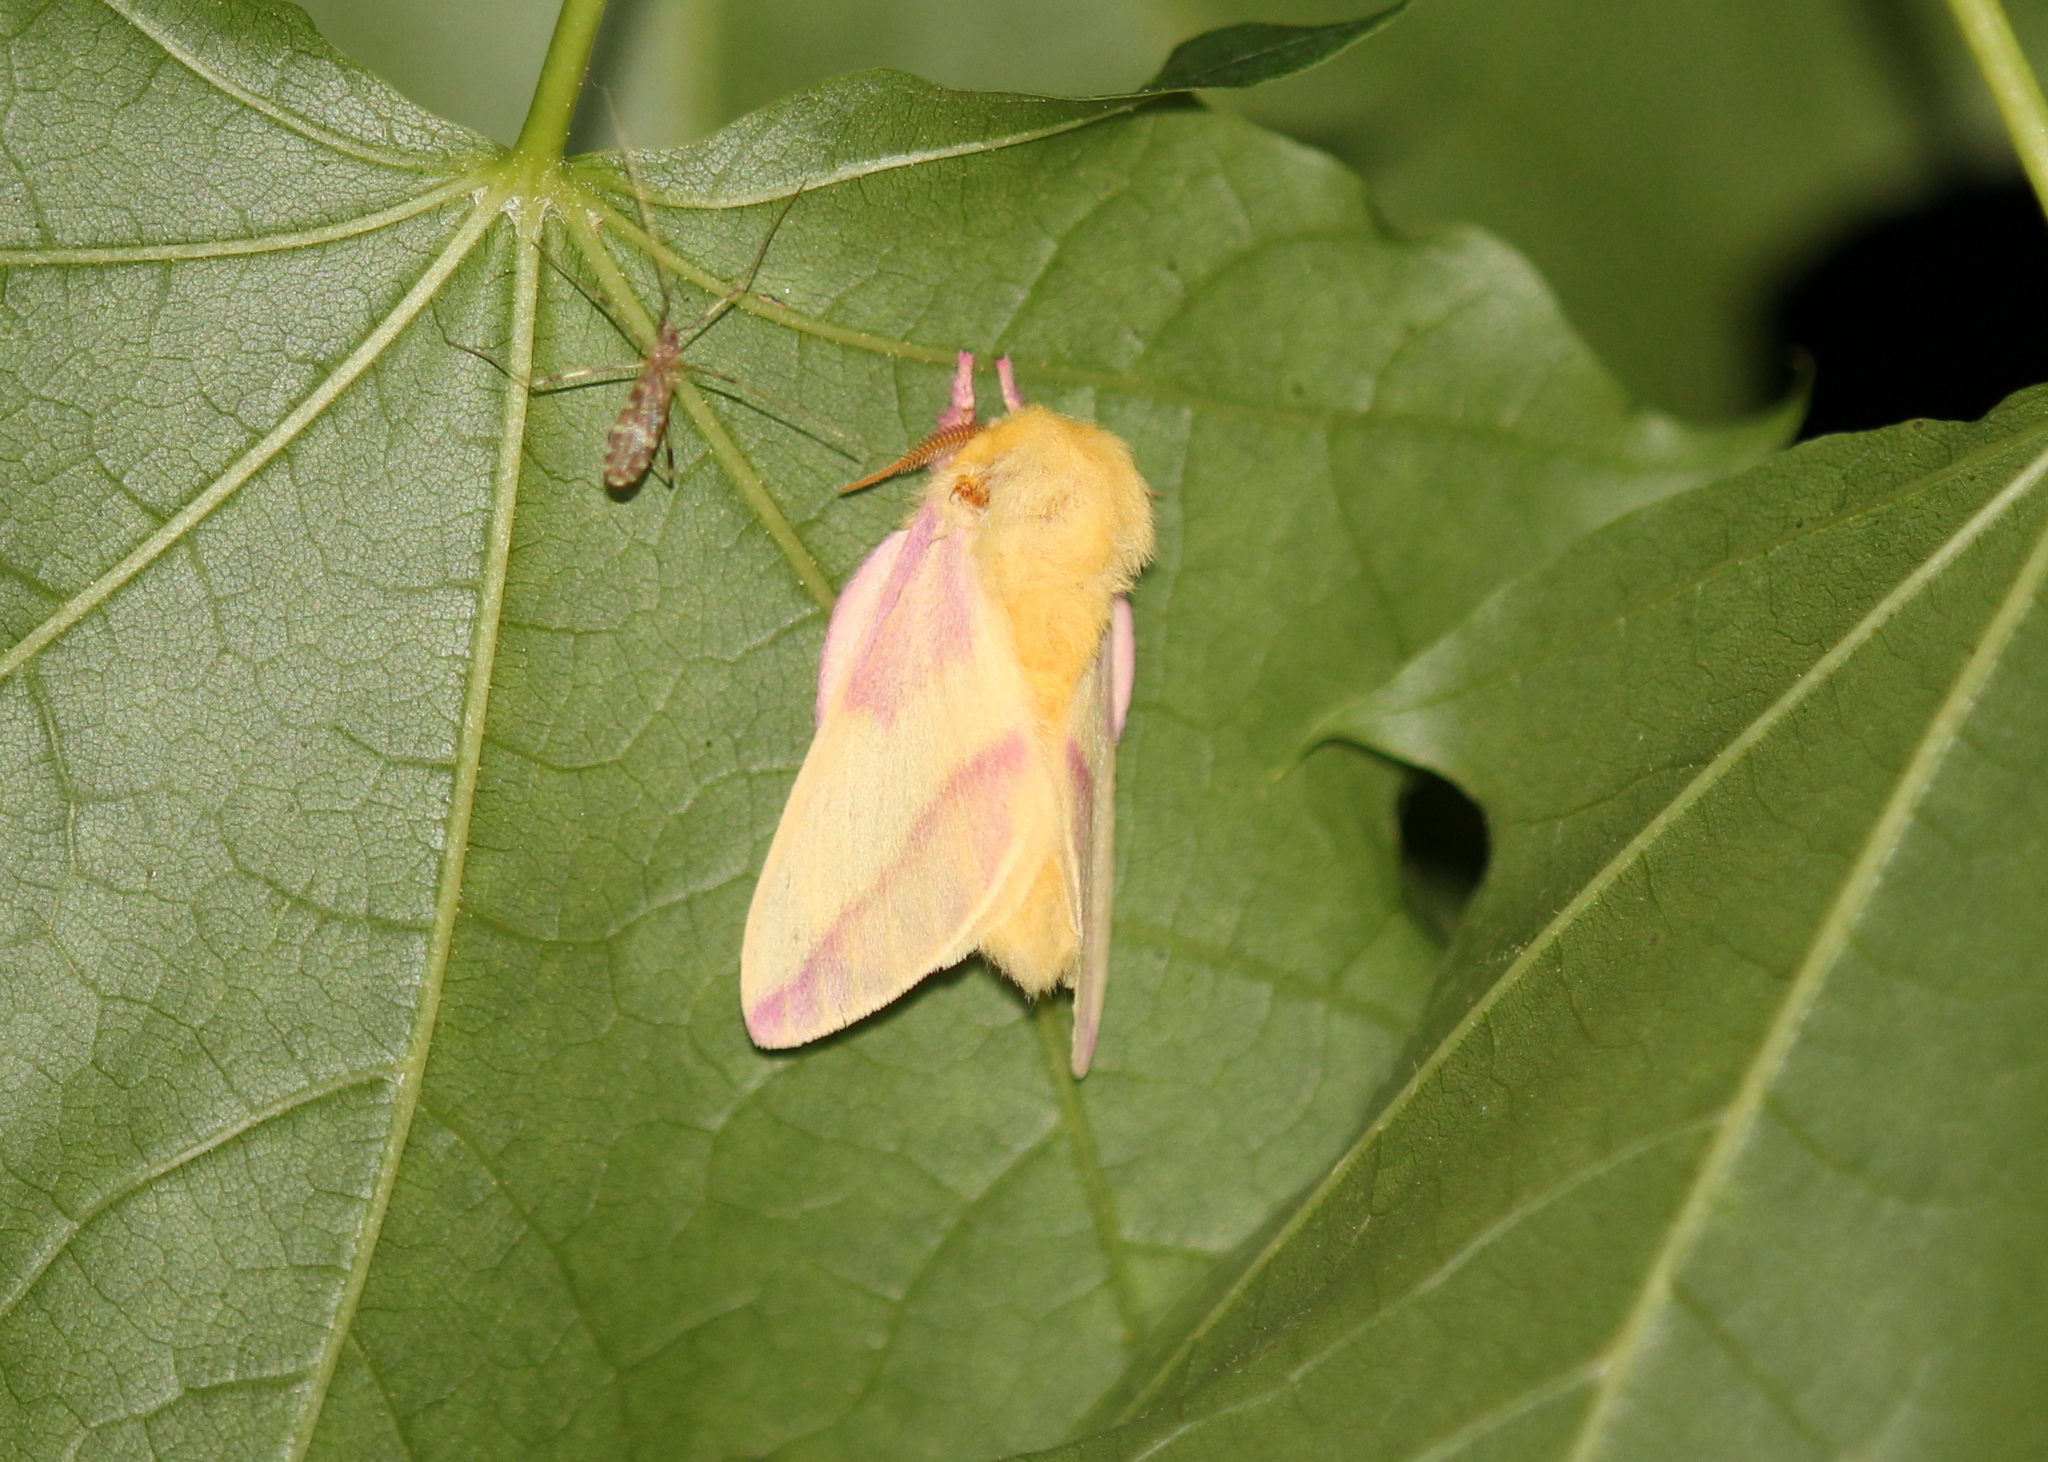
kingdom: Animalia
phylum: Arthropoda
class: Insecta
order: Lepidoptera
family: Saturniidae
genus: Dryocampa
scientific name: Dryocampa rubicunda
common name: Rosy maple moth
